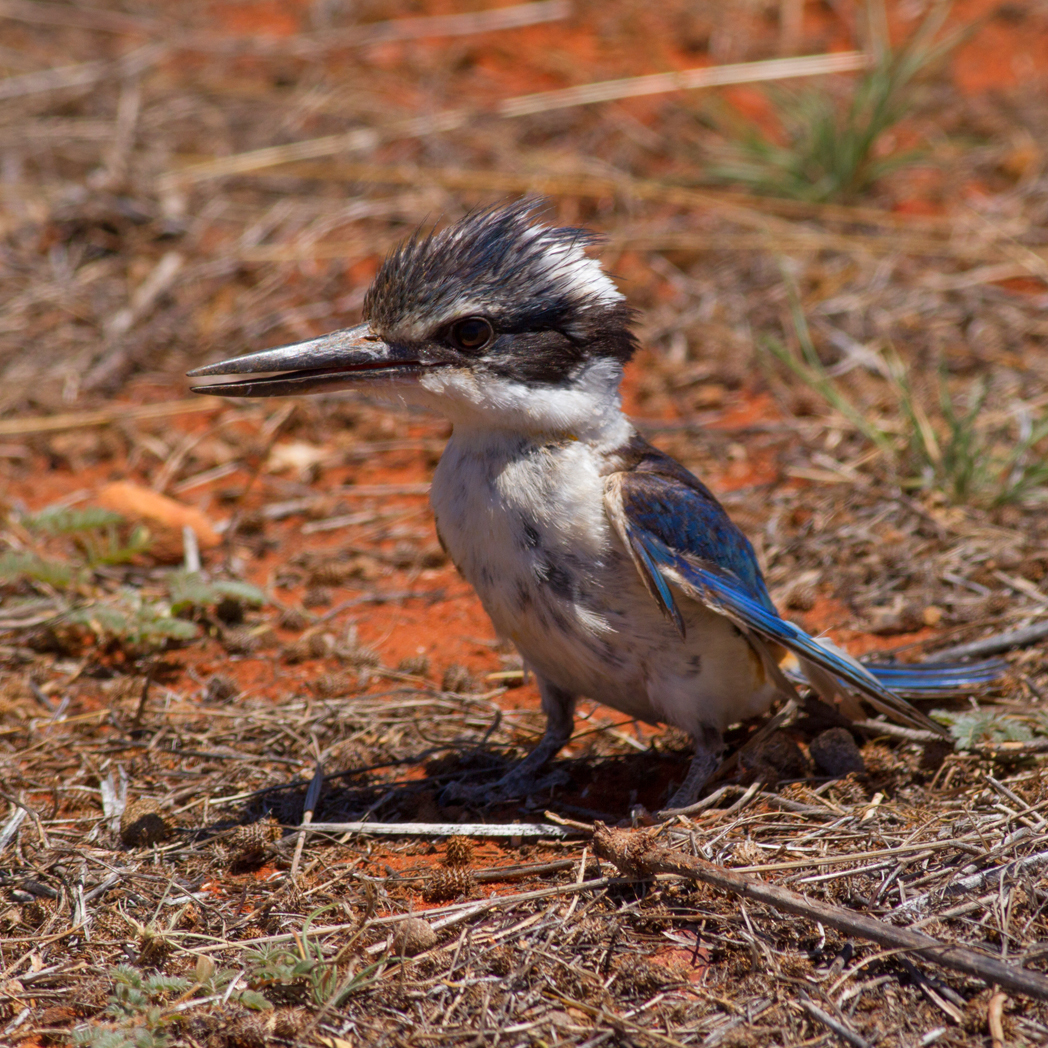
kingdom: Animalia
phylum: Chordata
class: Aves
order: Coraciiformes
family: Alcedinidae
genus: Todiramphus
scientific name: Todiramphus pyrrhopygius
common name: Red-backed kingfisher
